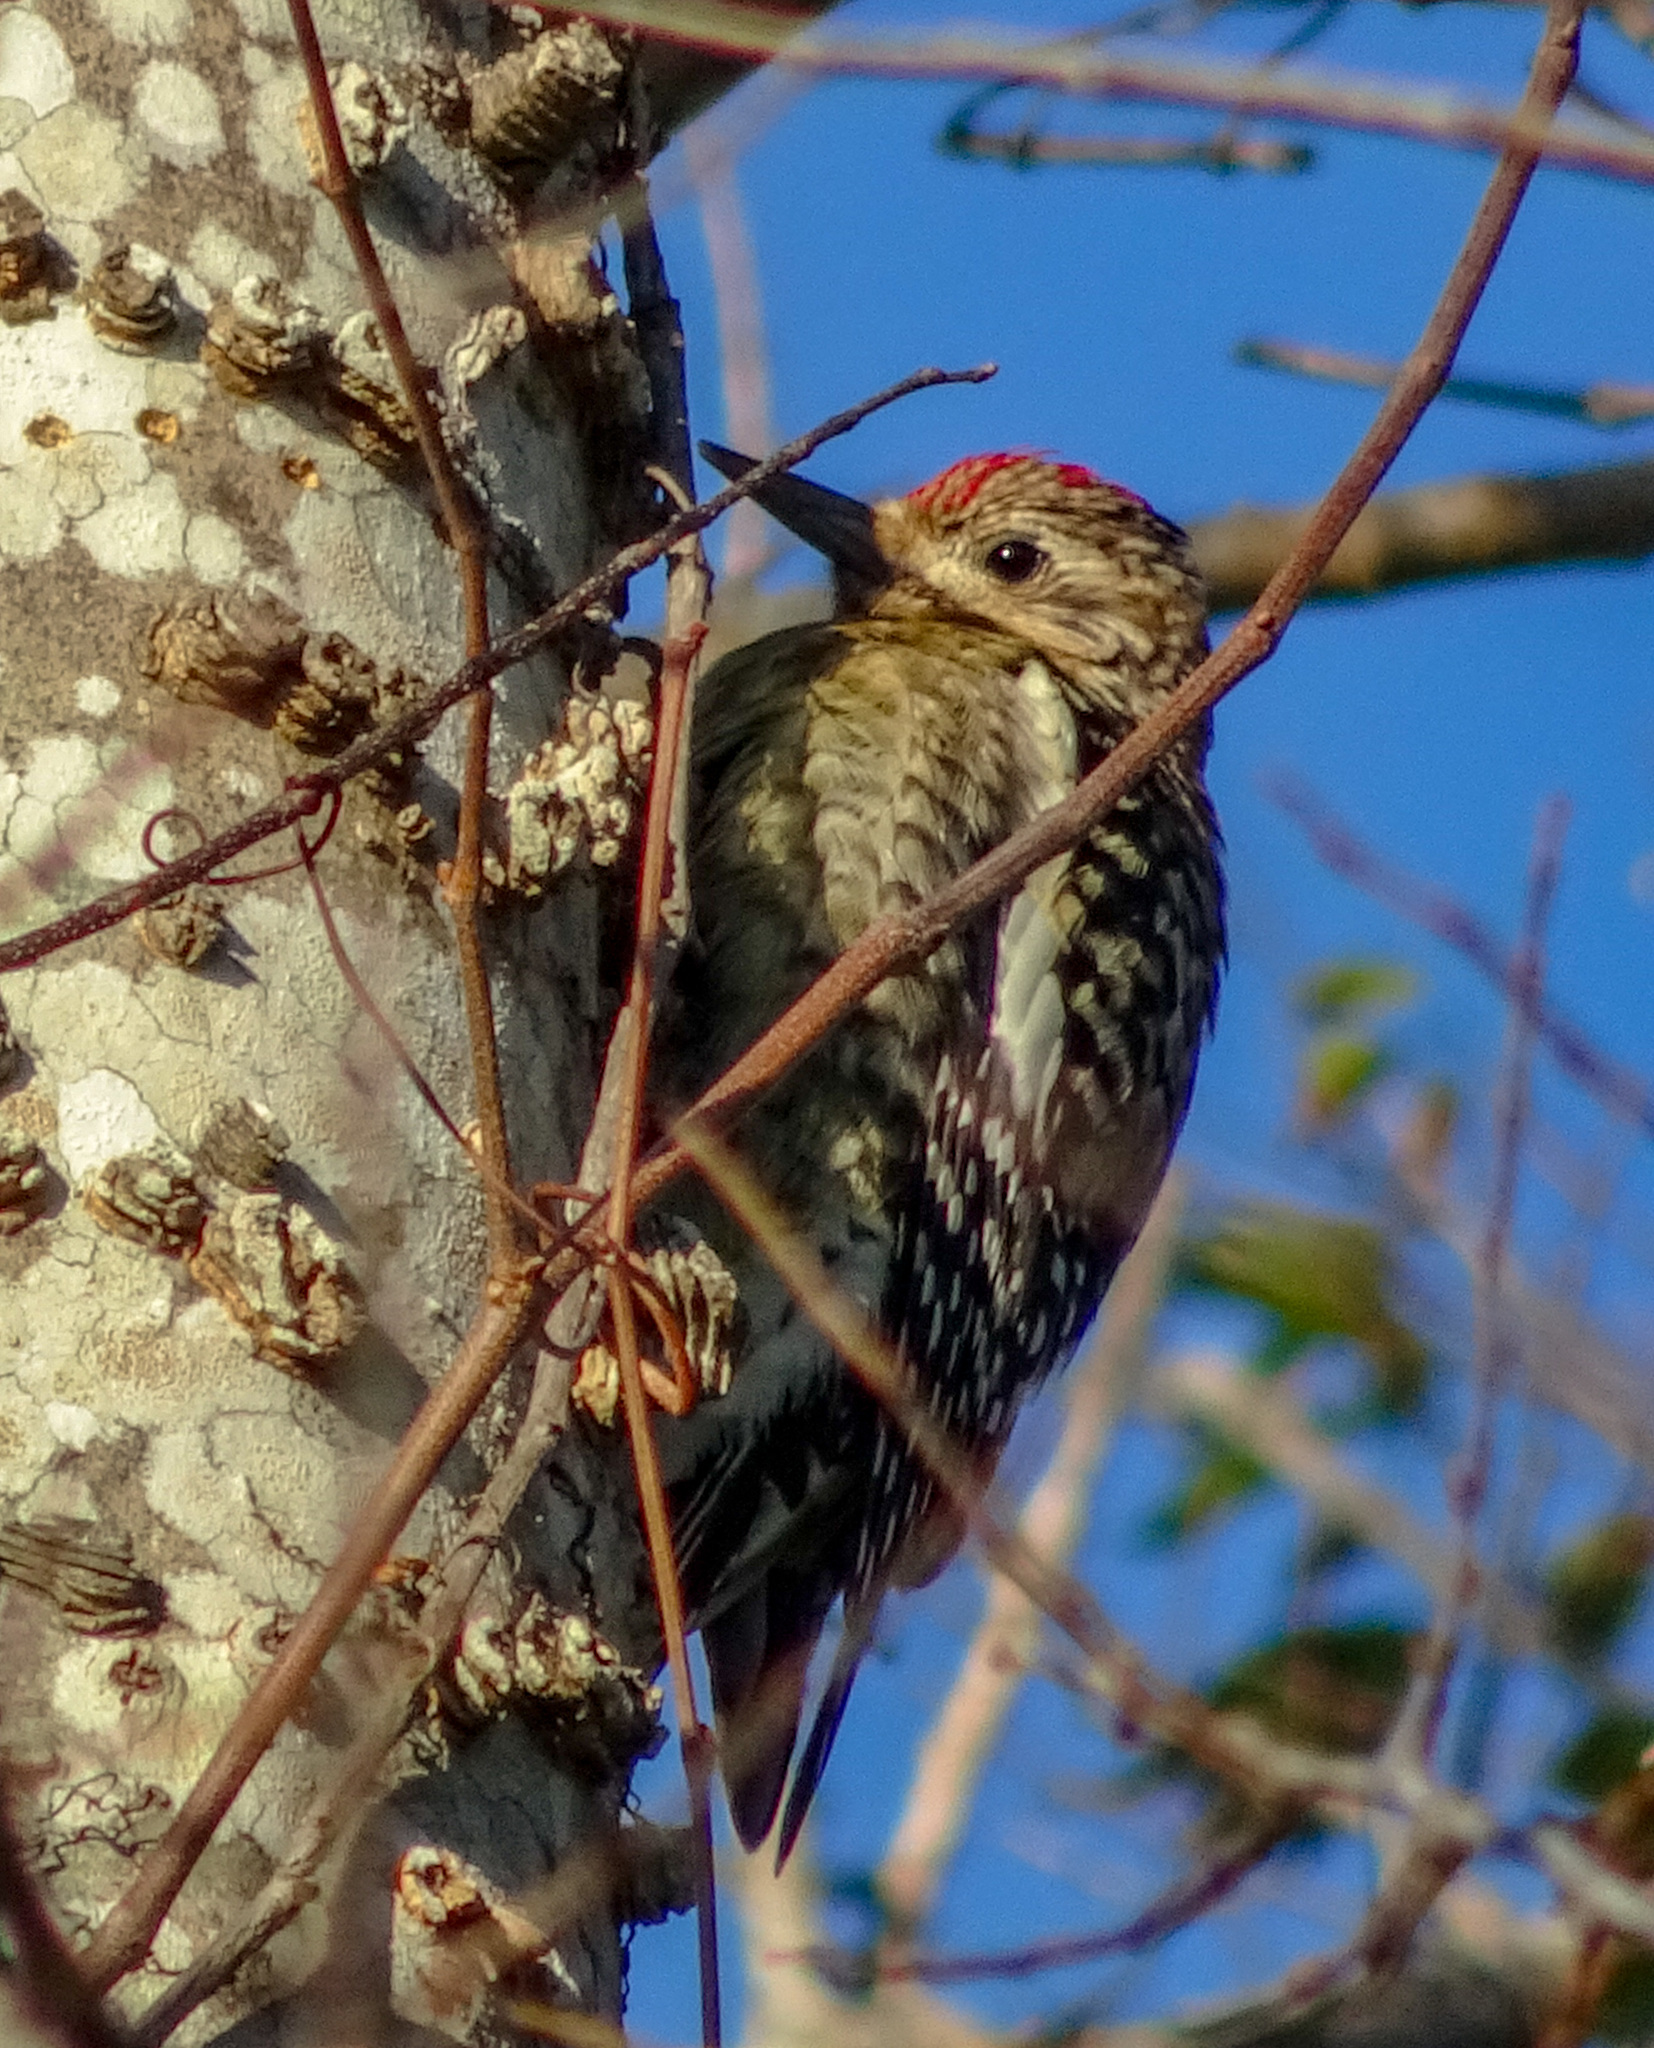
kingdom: Animalia
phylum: Chordata
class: Aves
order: Piciformes
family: Picidae
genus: Sphyrapicus
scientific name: Sphyrapicus varius
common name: Yellow-bellied sapsucker
